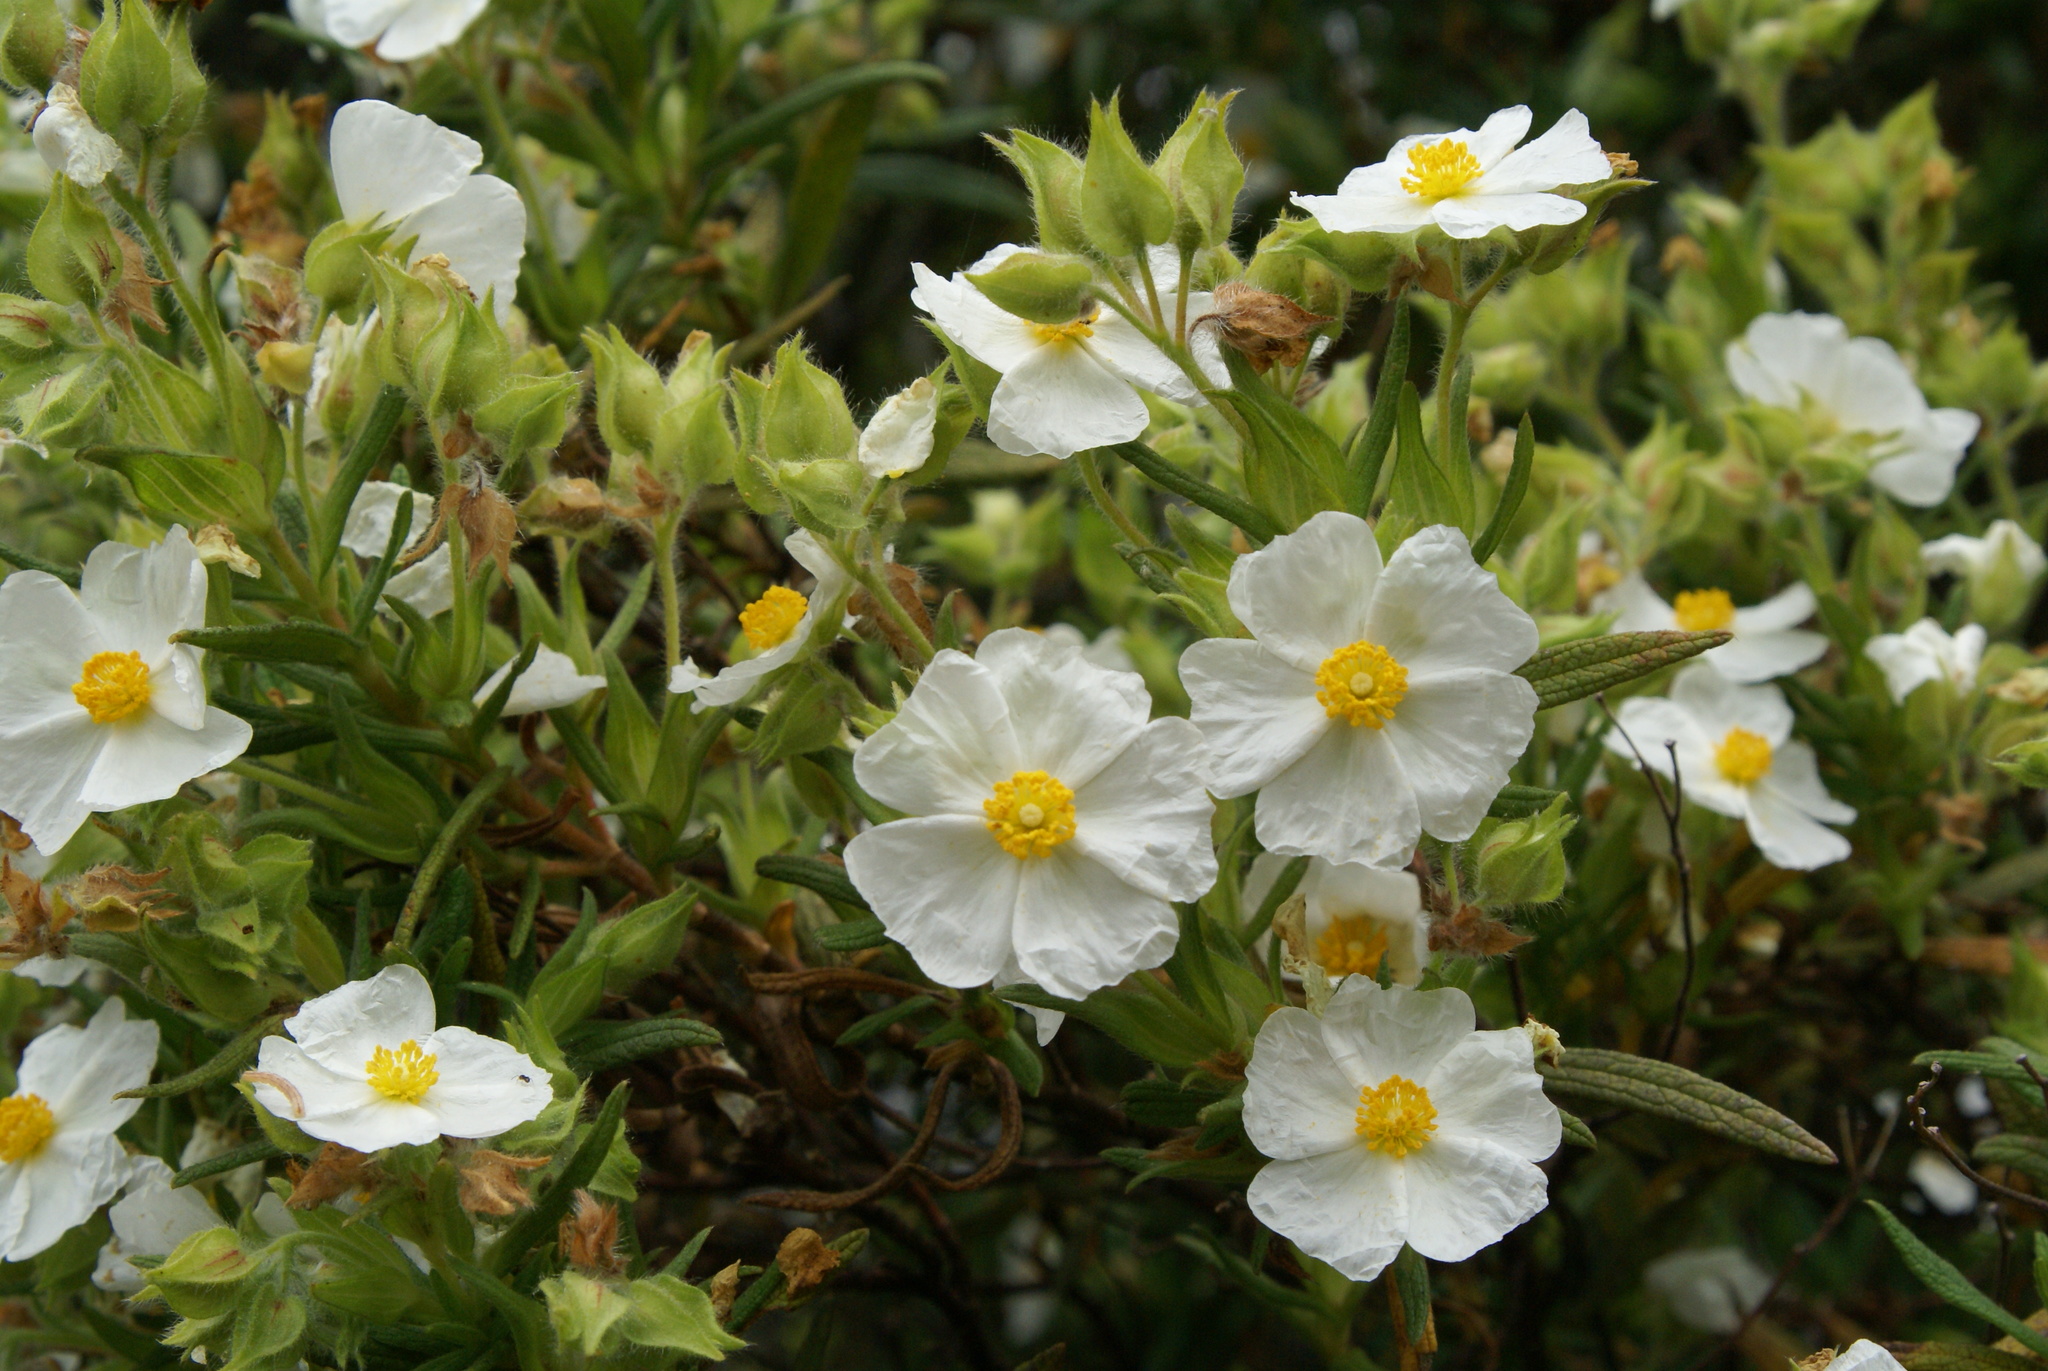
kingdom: Plantae
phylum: Tracheophyta
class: Magnoliopsida
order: Malvales
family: Cistaceae
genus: Cistus
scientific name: Cistus monspeliensis
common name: Montpelier cistus
